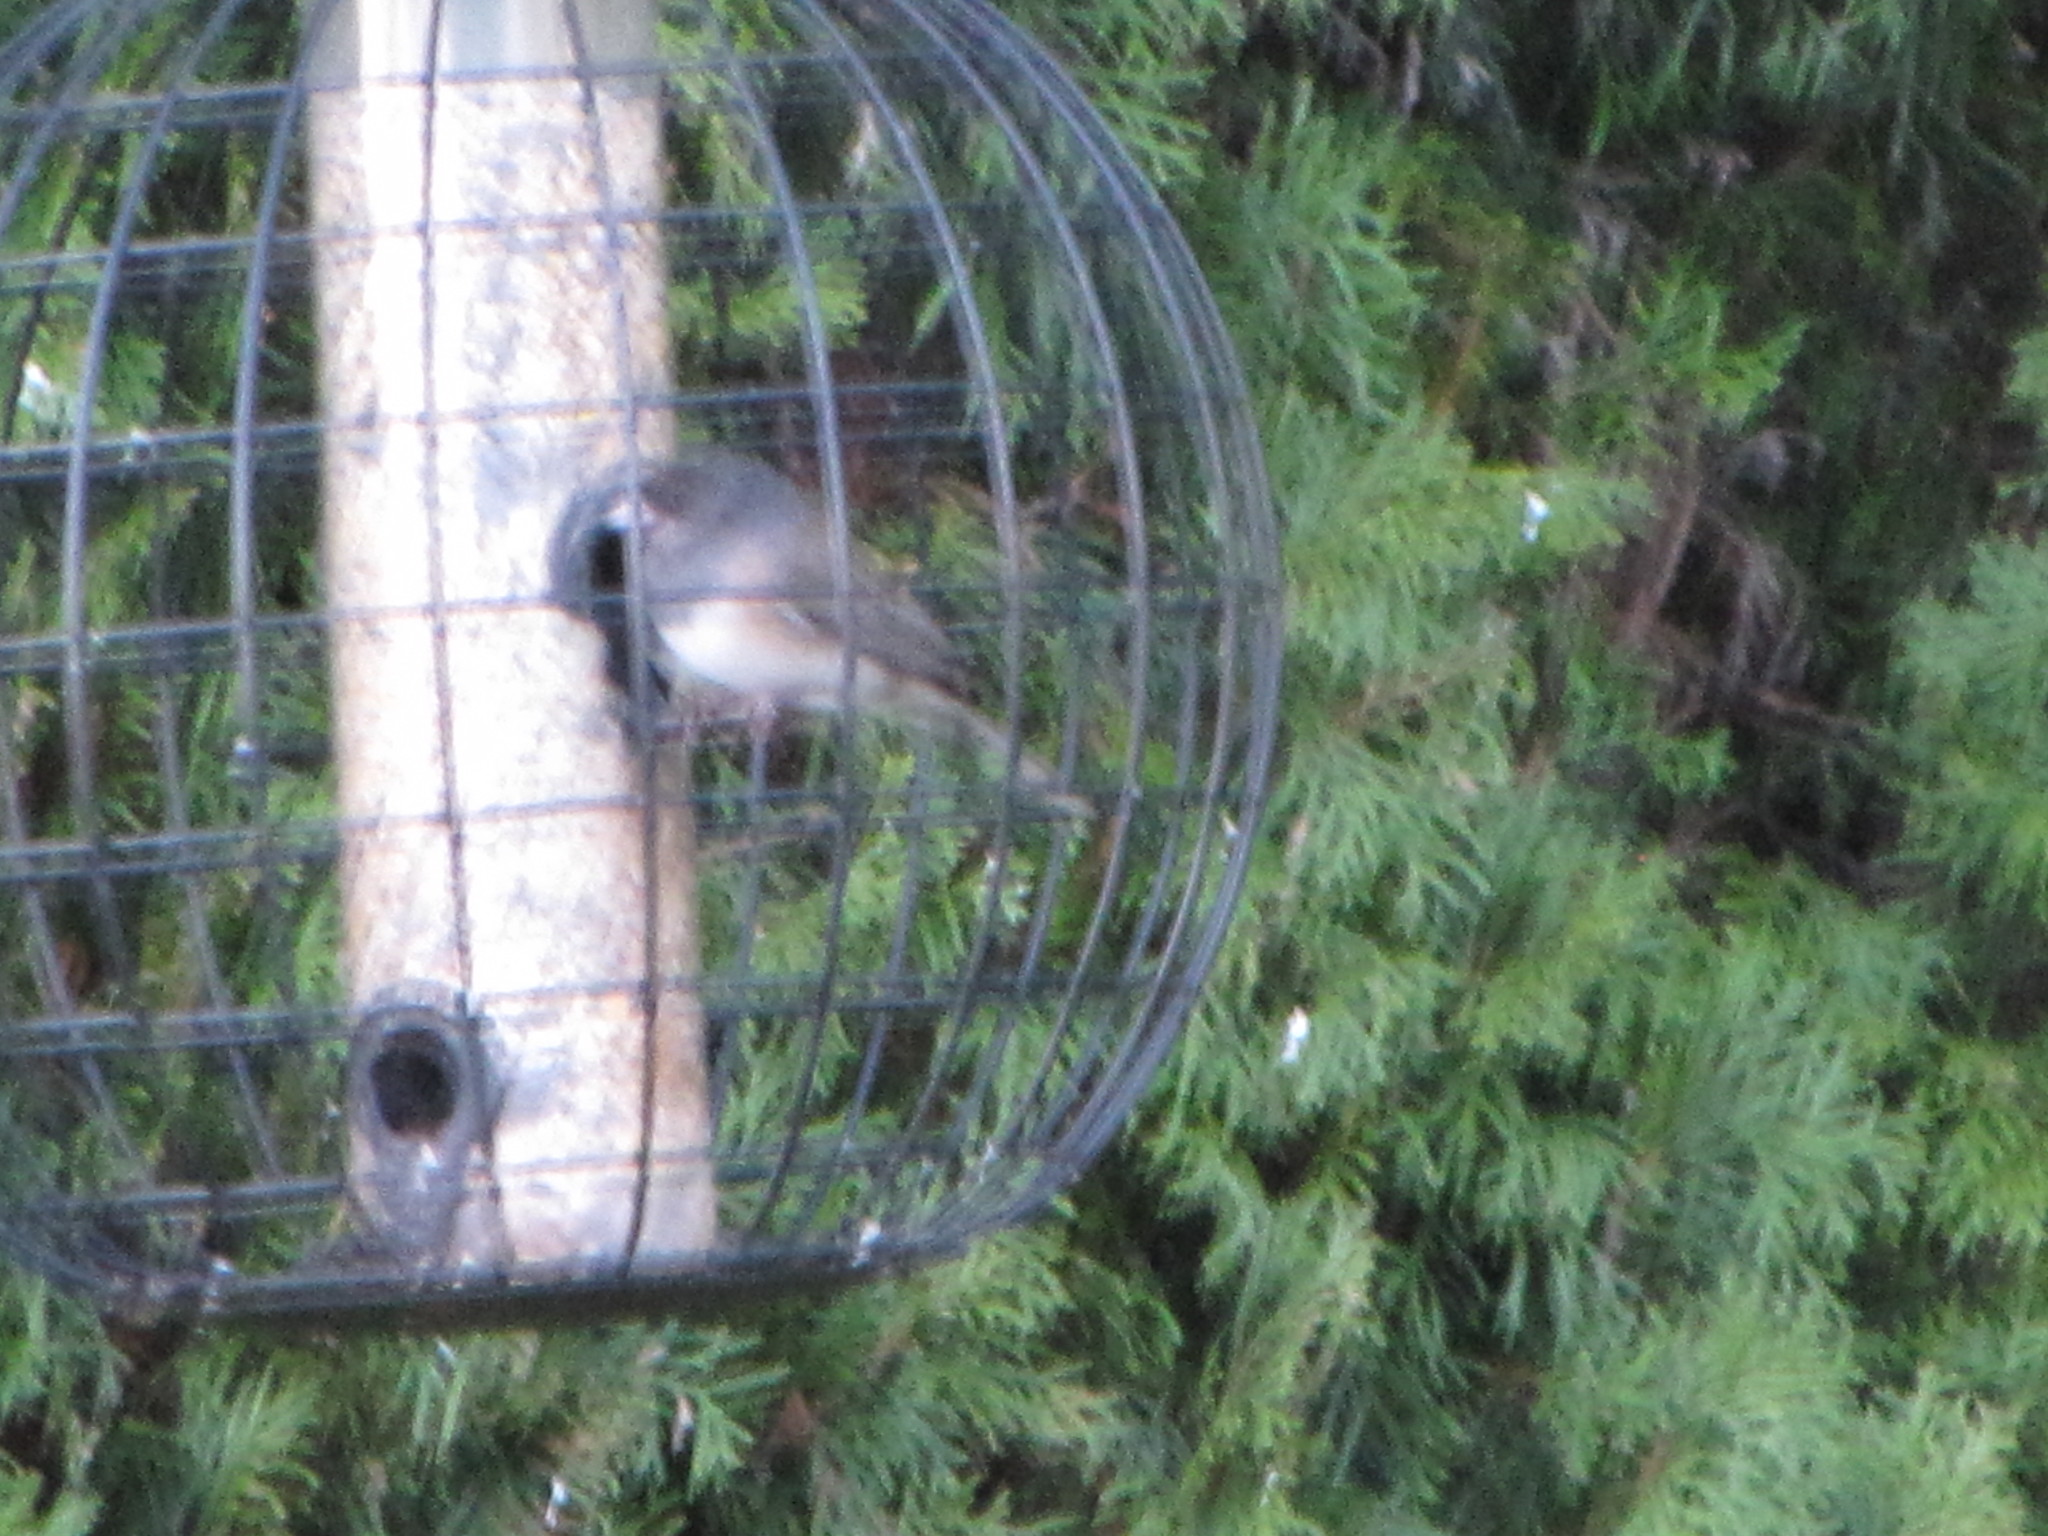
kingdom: Animalia
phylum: Chordata
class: Aves
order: Passeriformes
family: Passerellidae
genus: Junco
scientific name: Junco hyemalis
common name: Dark-eyed junco
